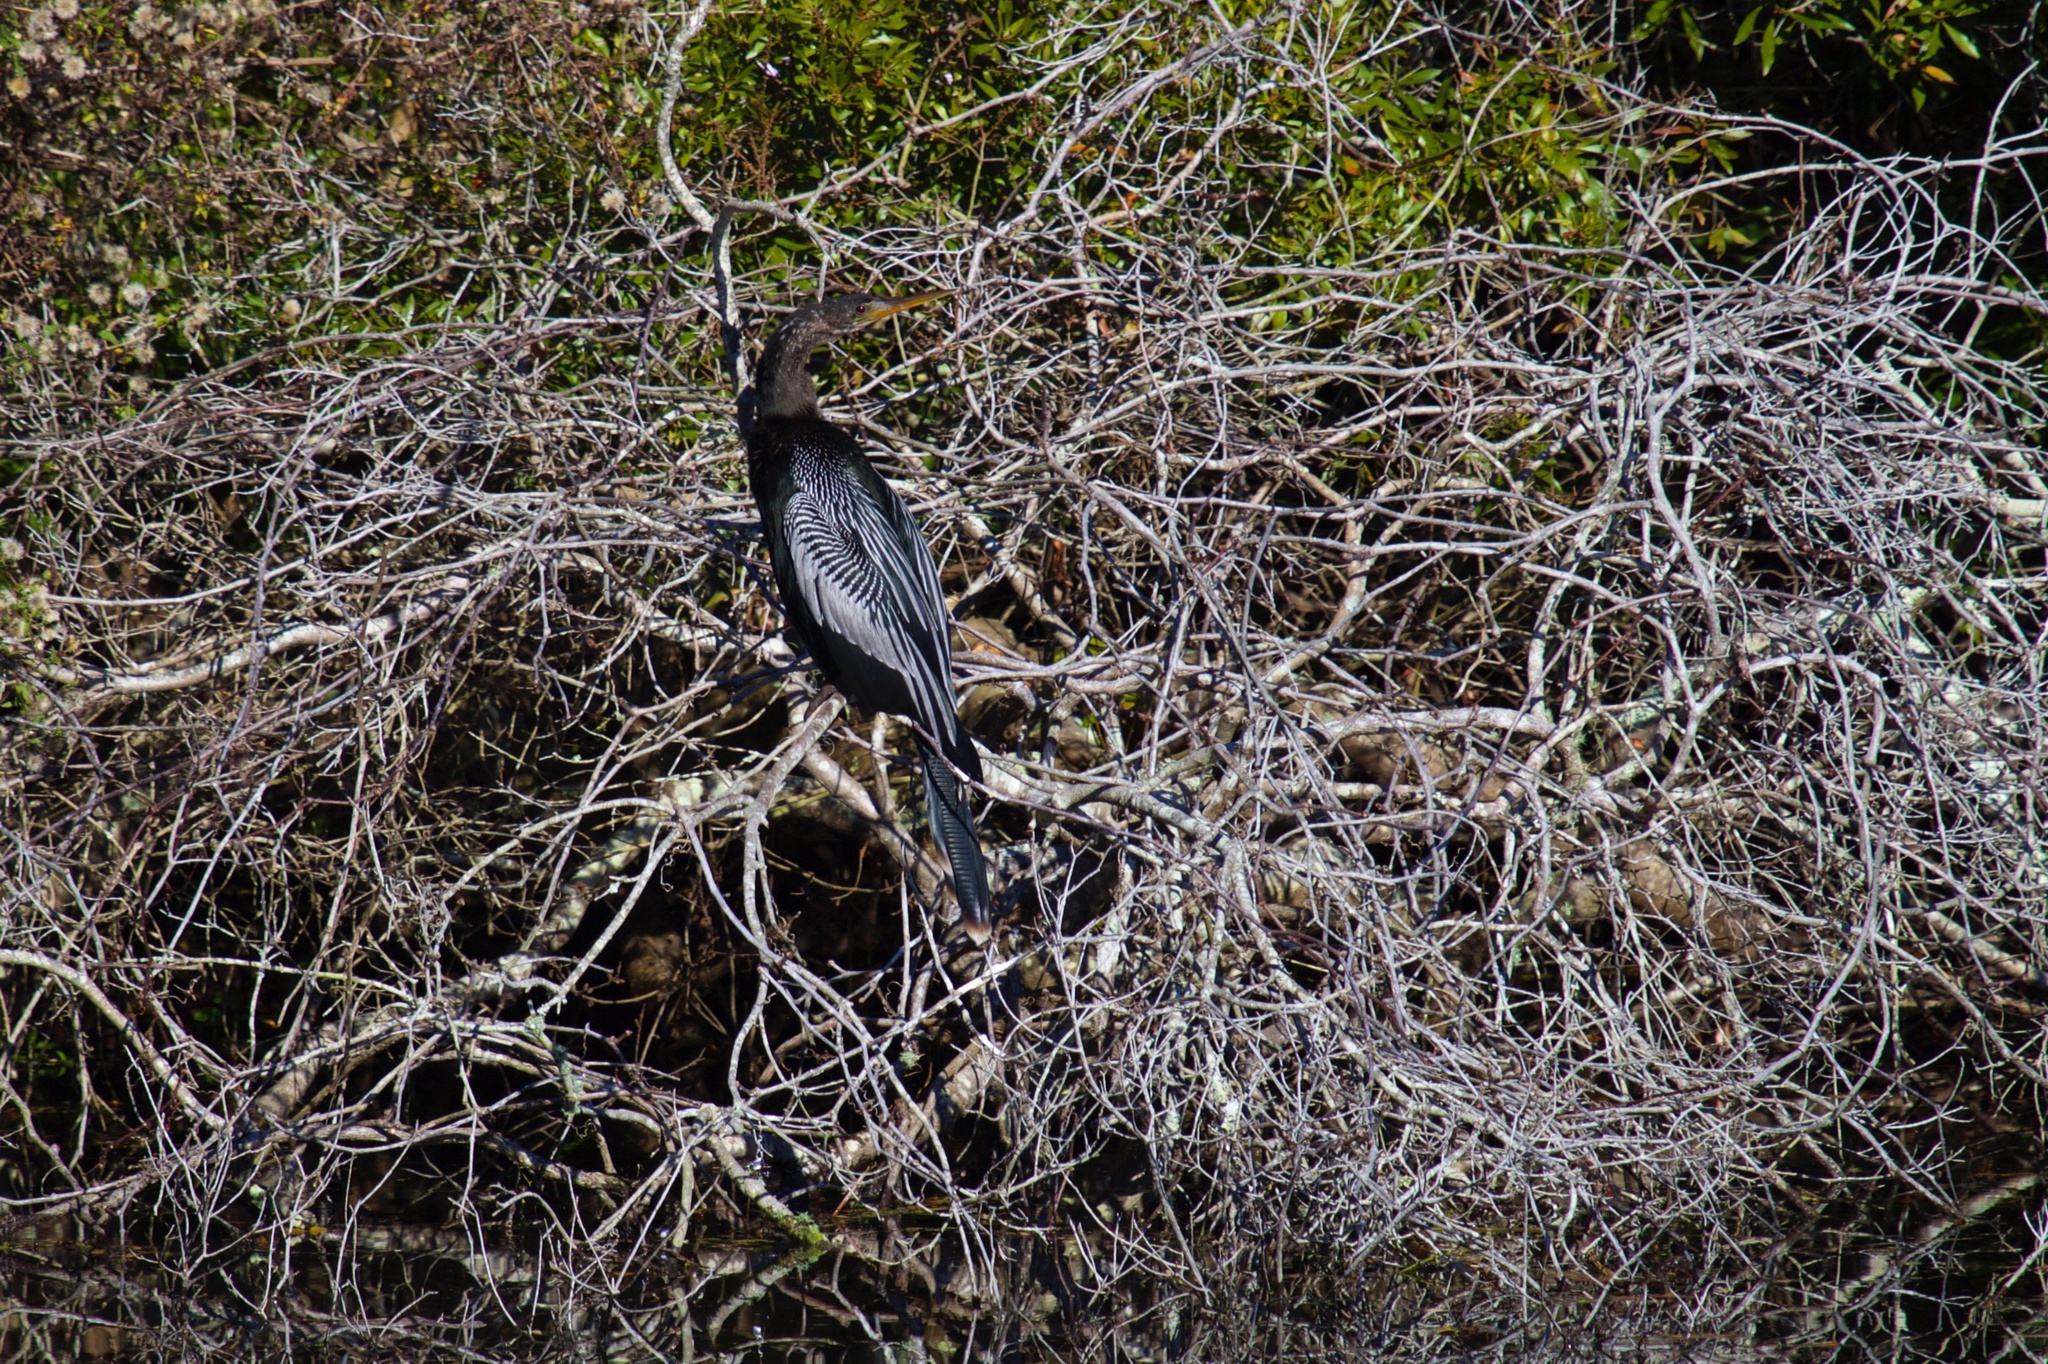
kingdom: Animalia
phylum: Chordata
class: Aves
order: Suliformes
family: Anhingidae
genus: Anhinga
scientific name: Anhinga anhinga
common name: Anhinga
